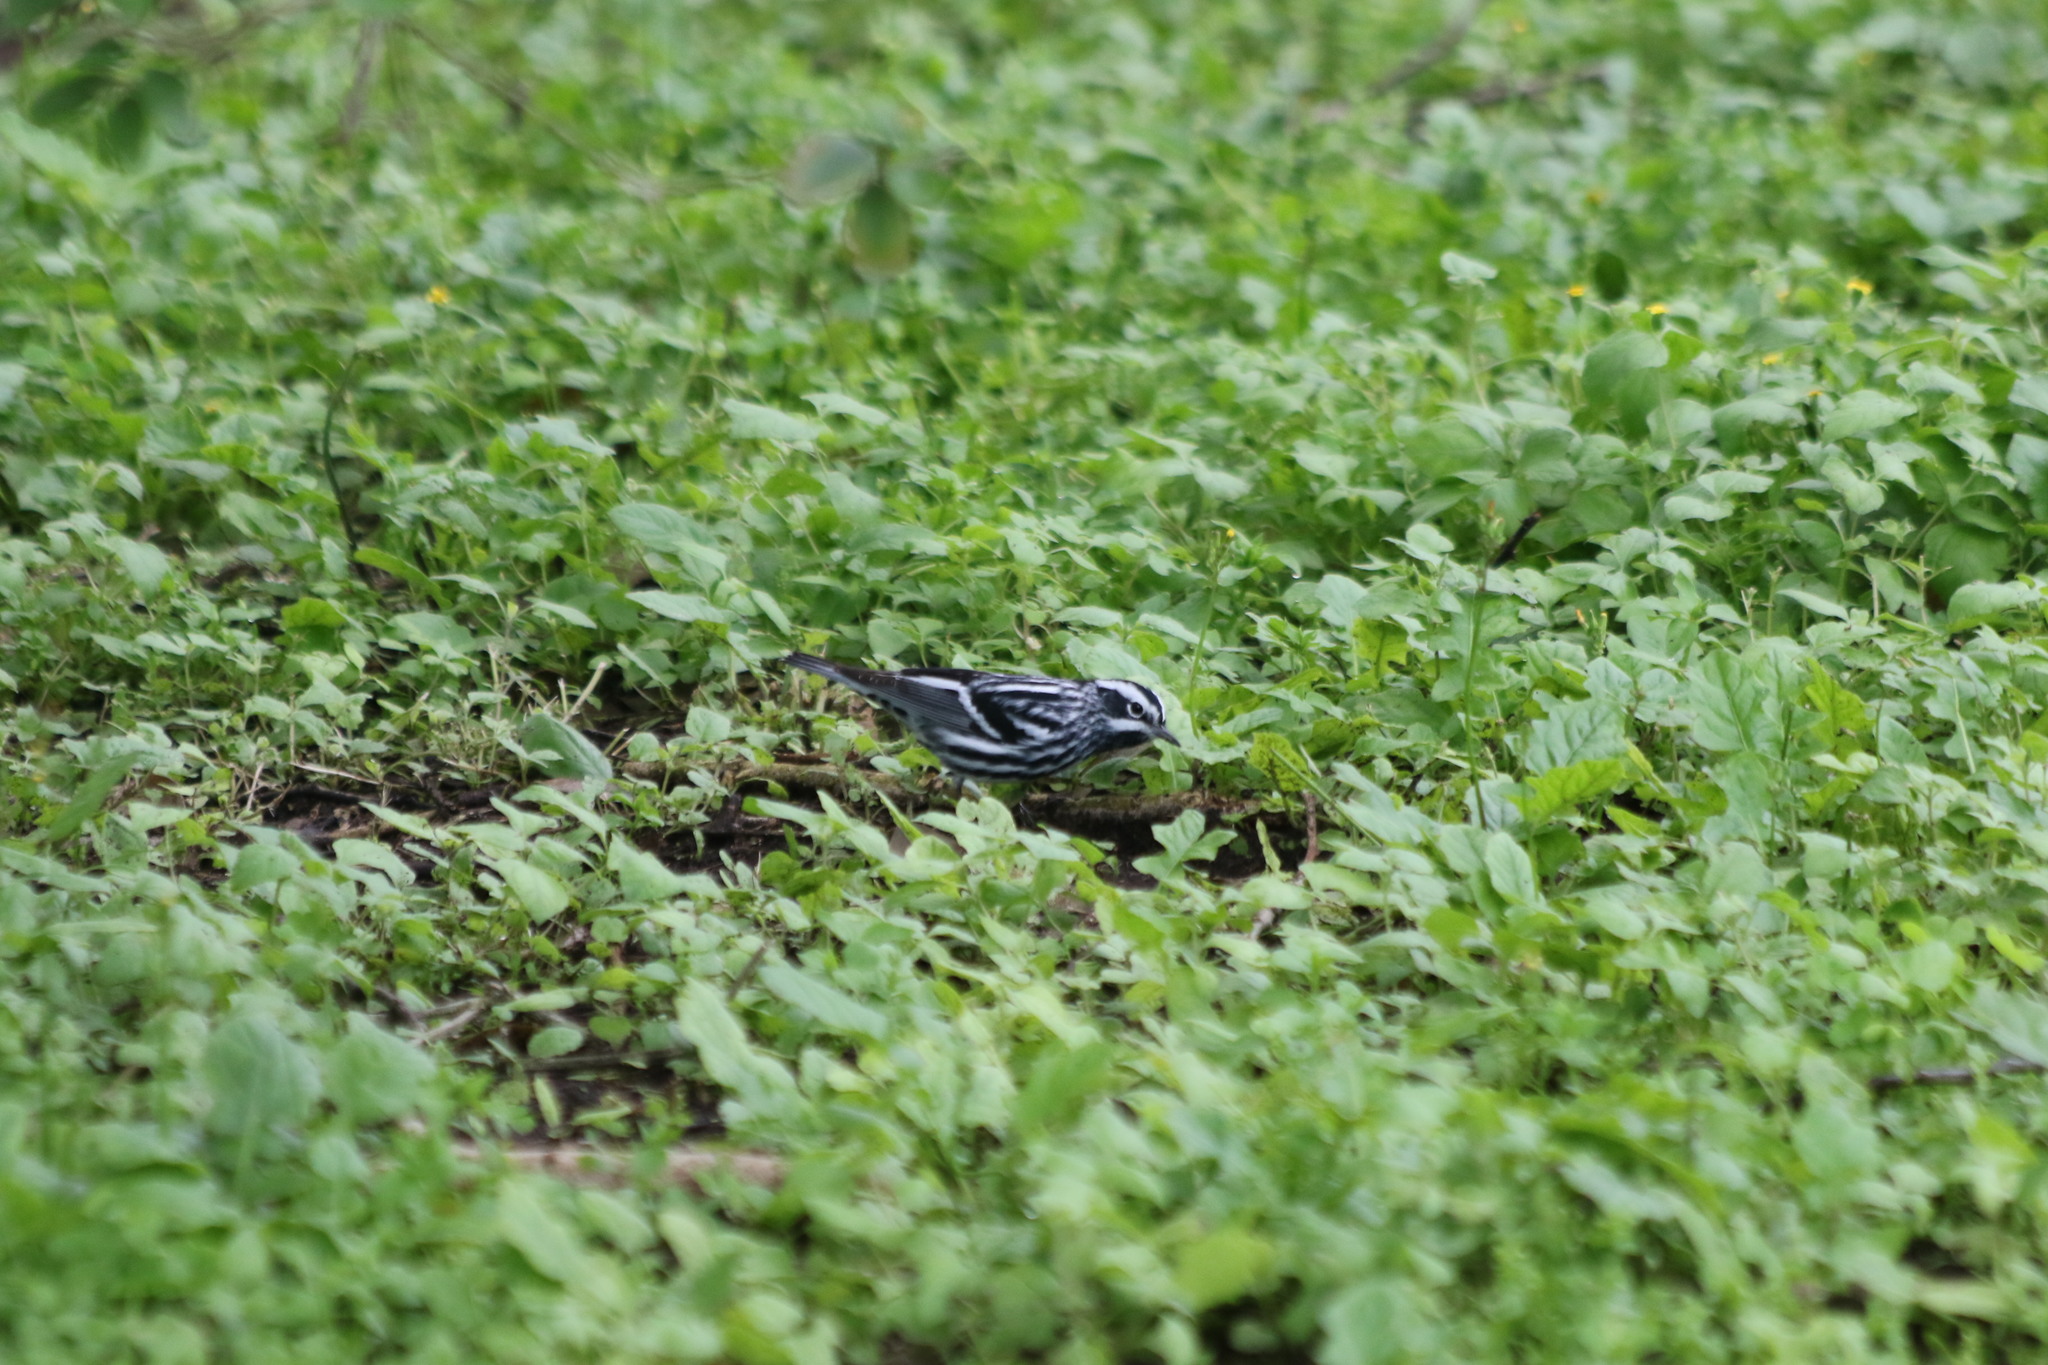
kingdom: Animalia
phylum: Chordata
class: Aves
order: Passeriformes
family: Parulidae
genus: Mniotilta
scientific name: Mniotilta varia
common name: Black-and-white warbler
